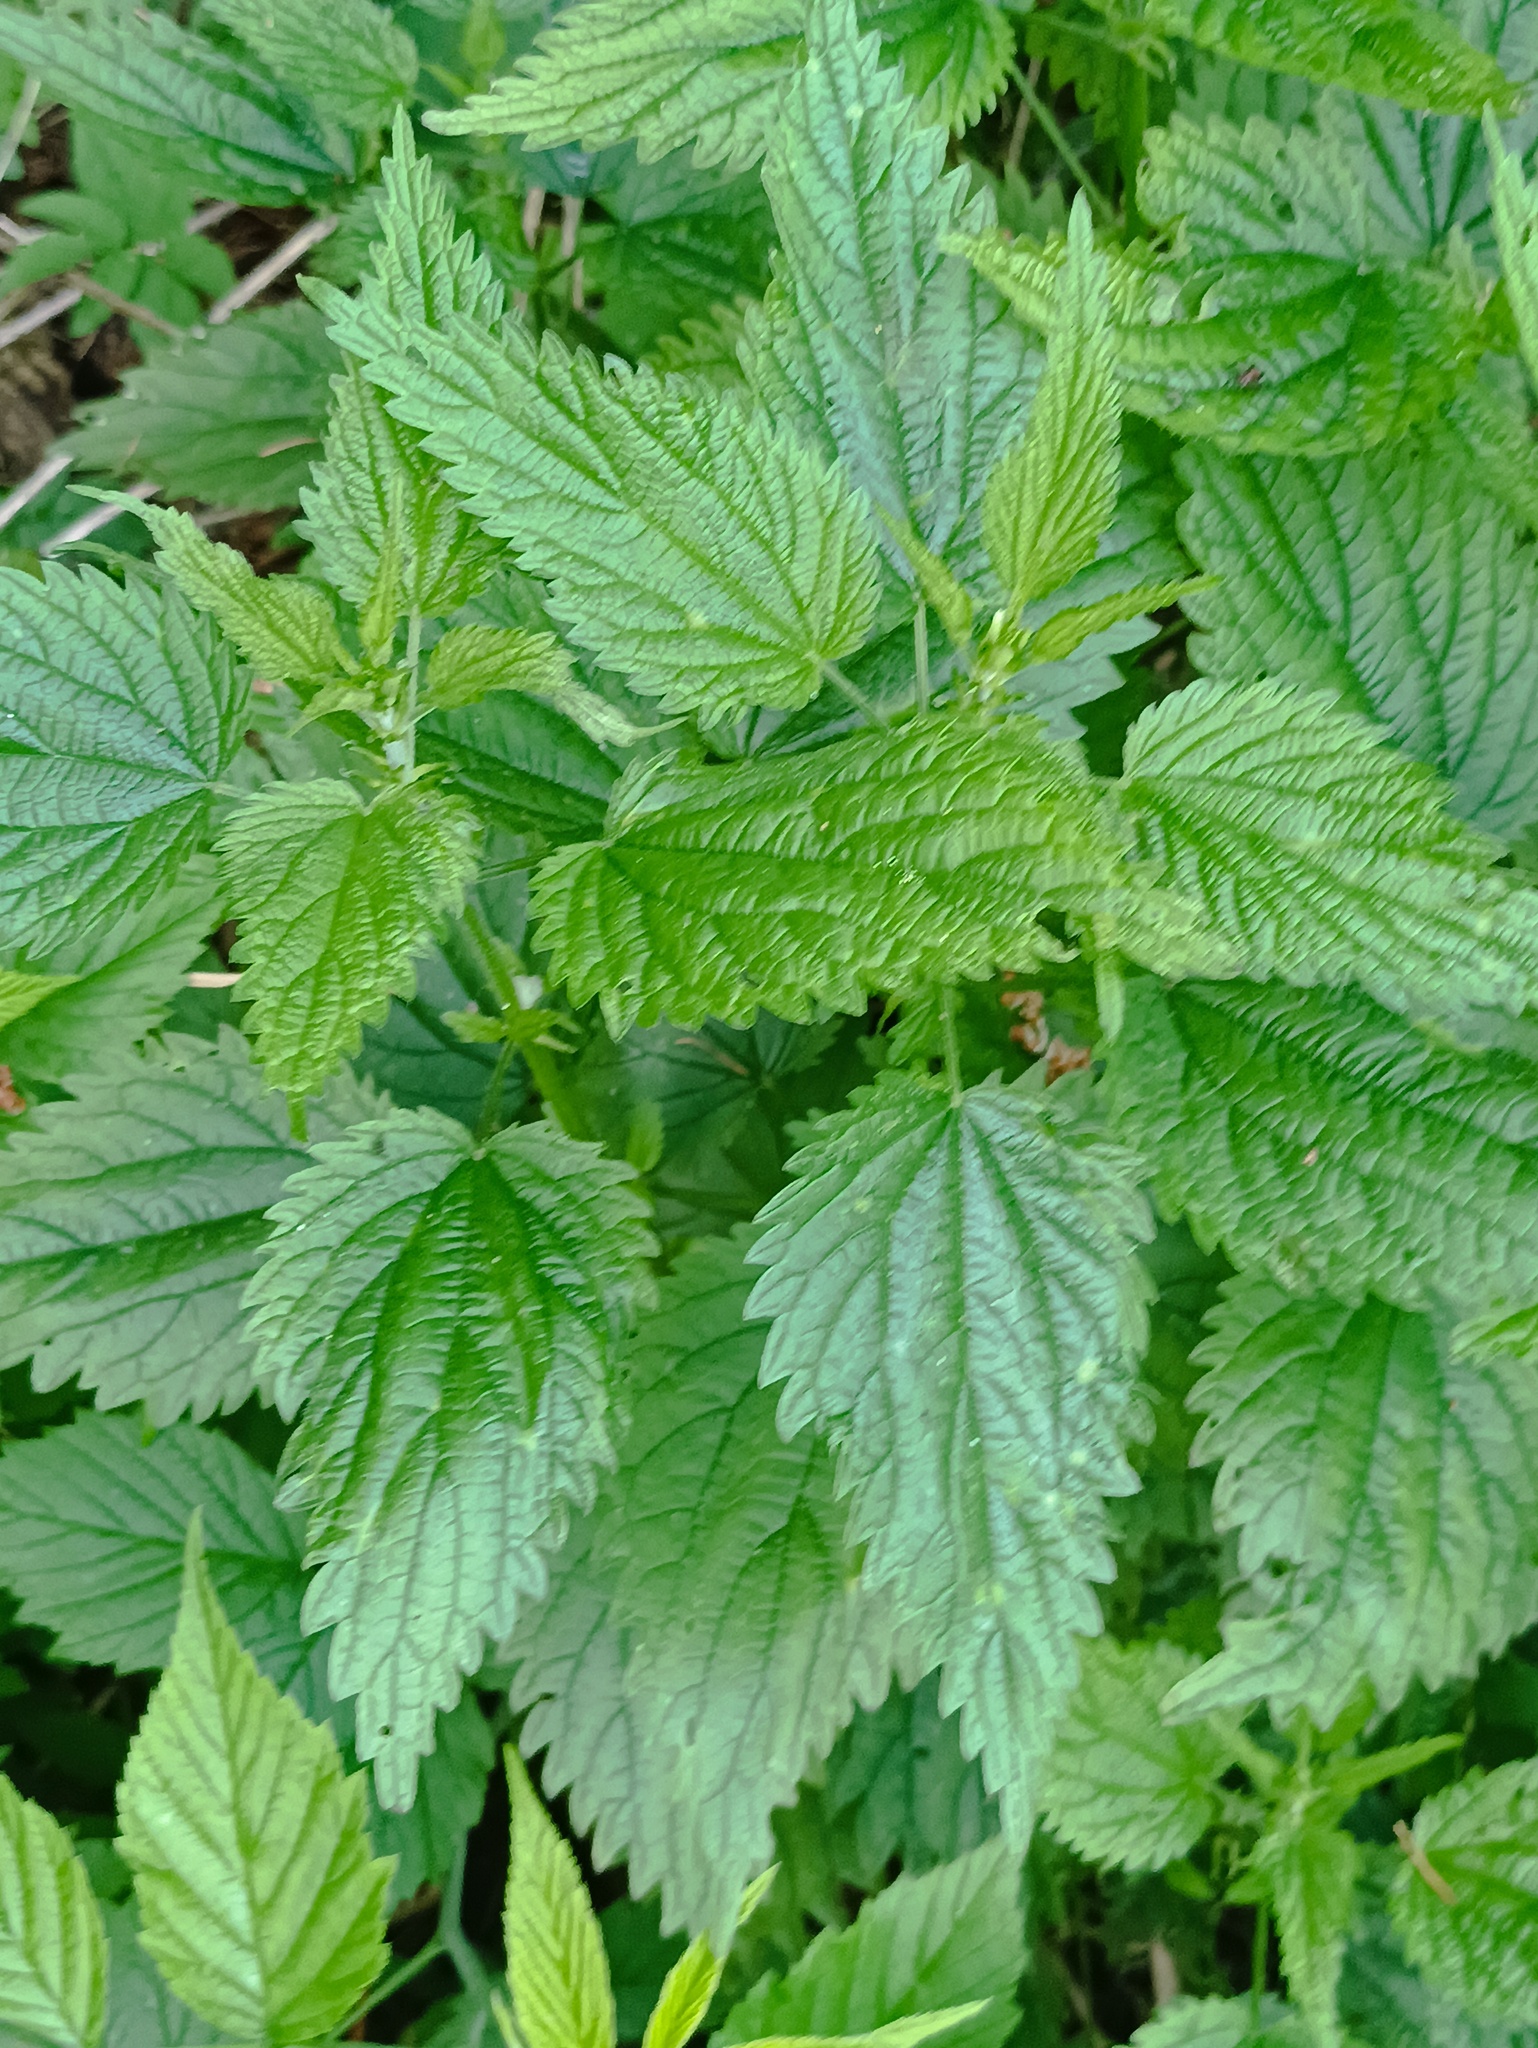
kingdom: Plantae
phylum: Tracheophyta
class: Magnoliopsida
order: Rosales
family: Urticaceae
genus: Urtica
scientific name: Urtica dioica
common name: Common nettle
